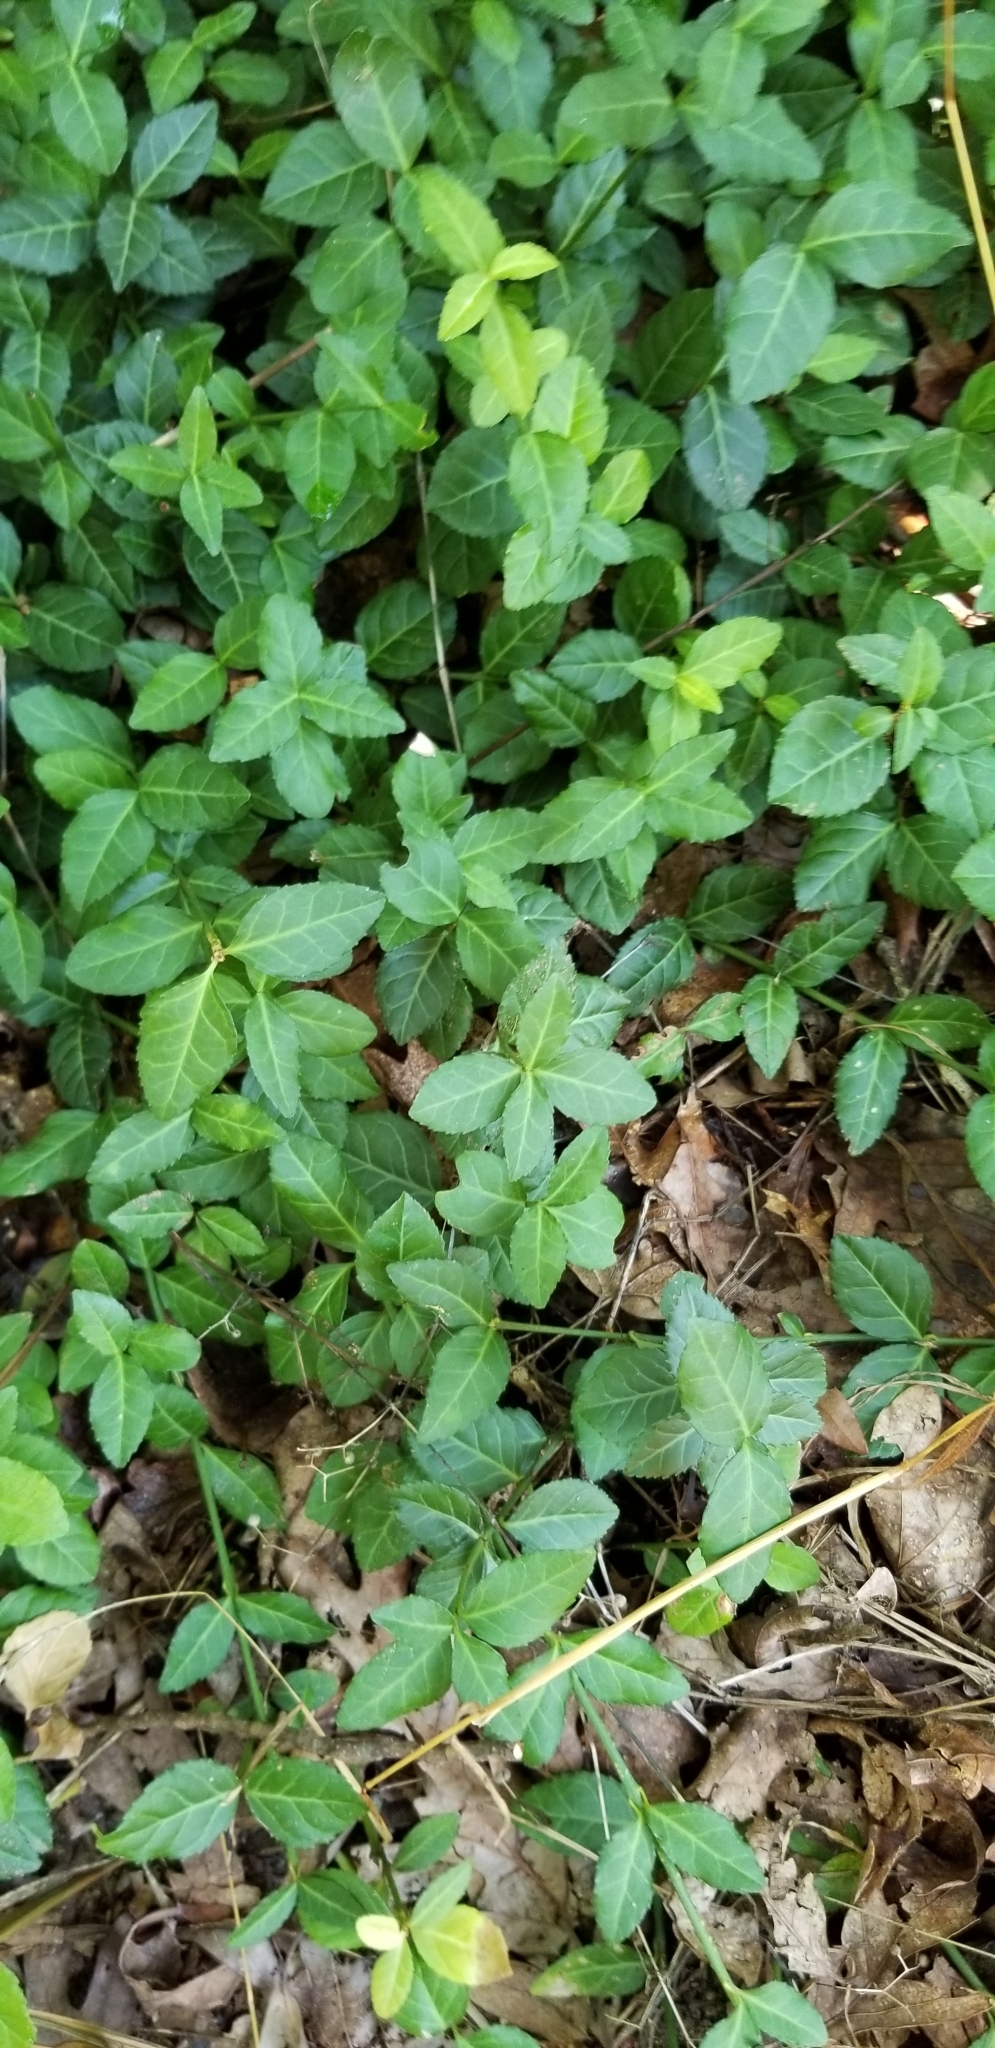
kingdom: Plantae
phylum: Tracheophyta
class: Magnoliopsida
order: Celastrales
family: Celastraceae
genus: Euonymus
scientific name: Euonymus fortunei
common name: Climbing euonymus
